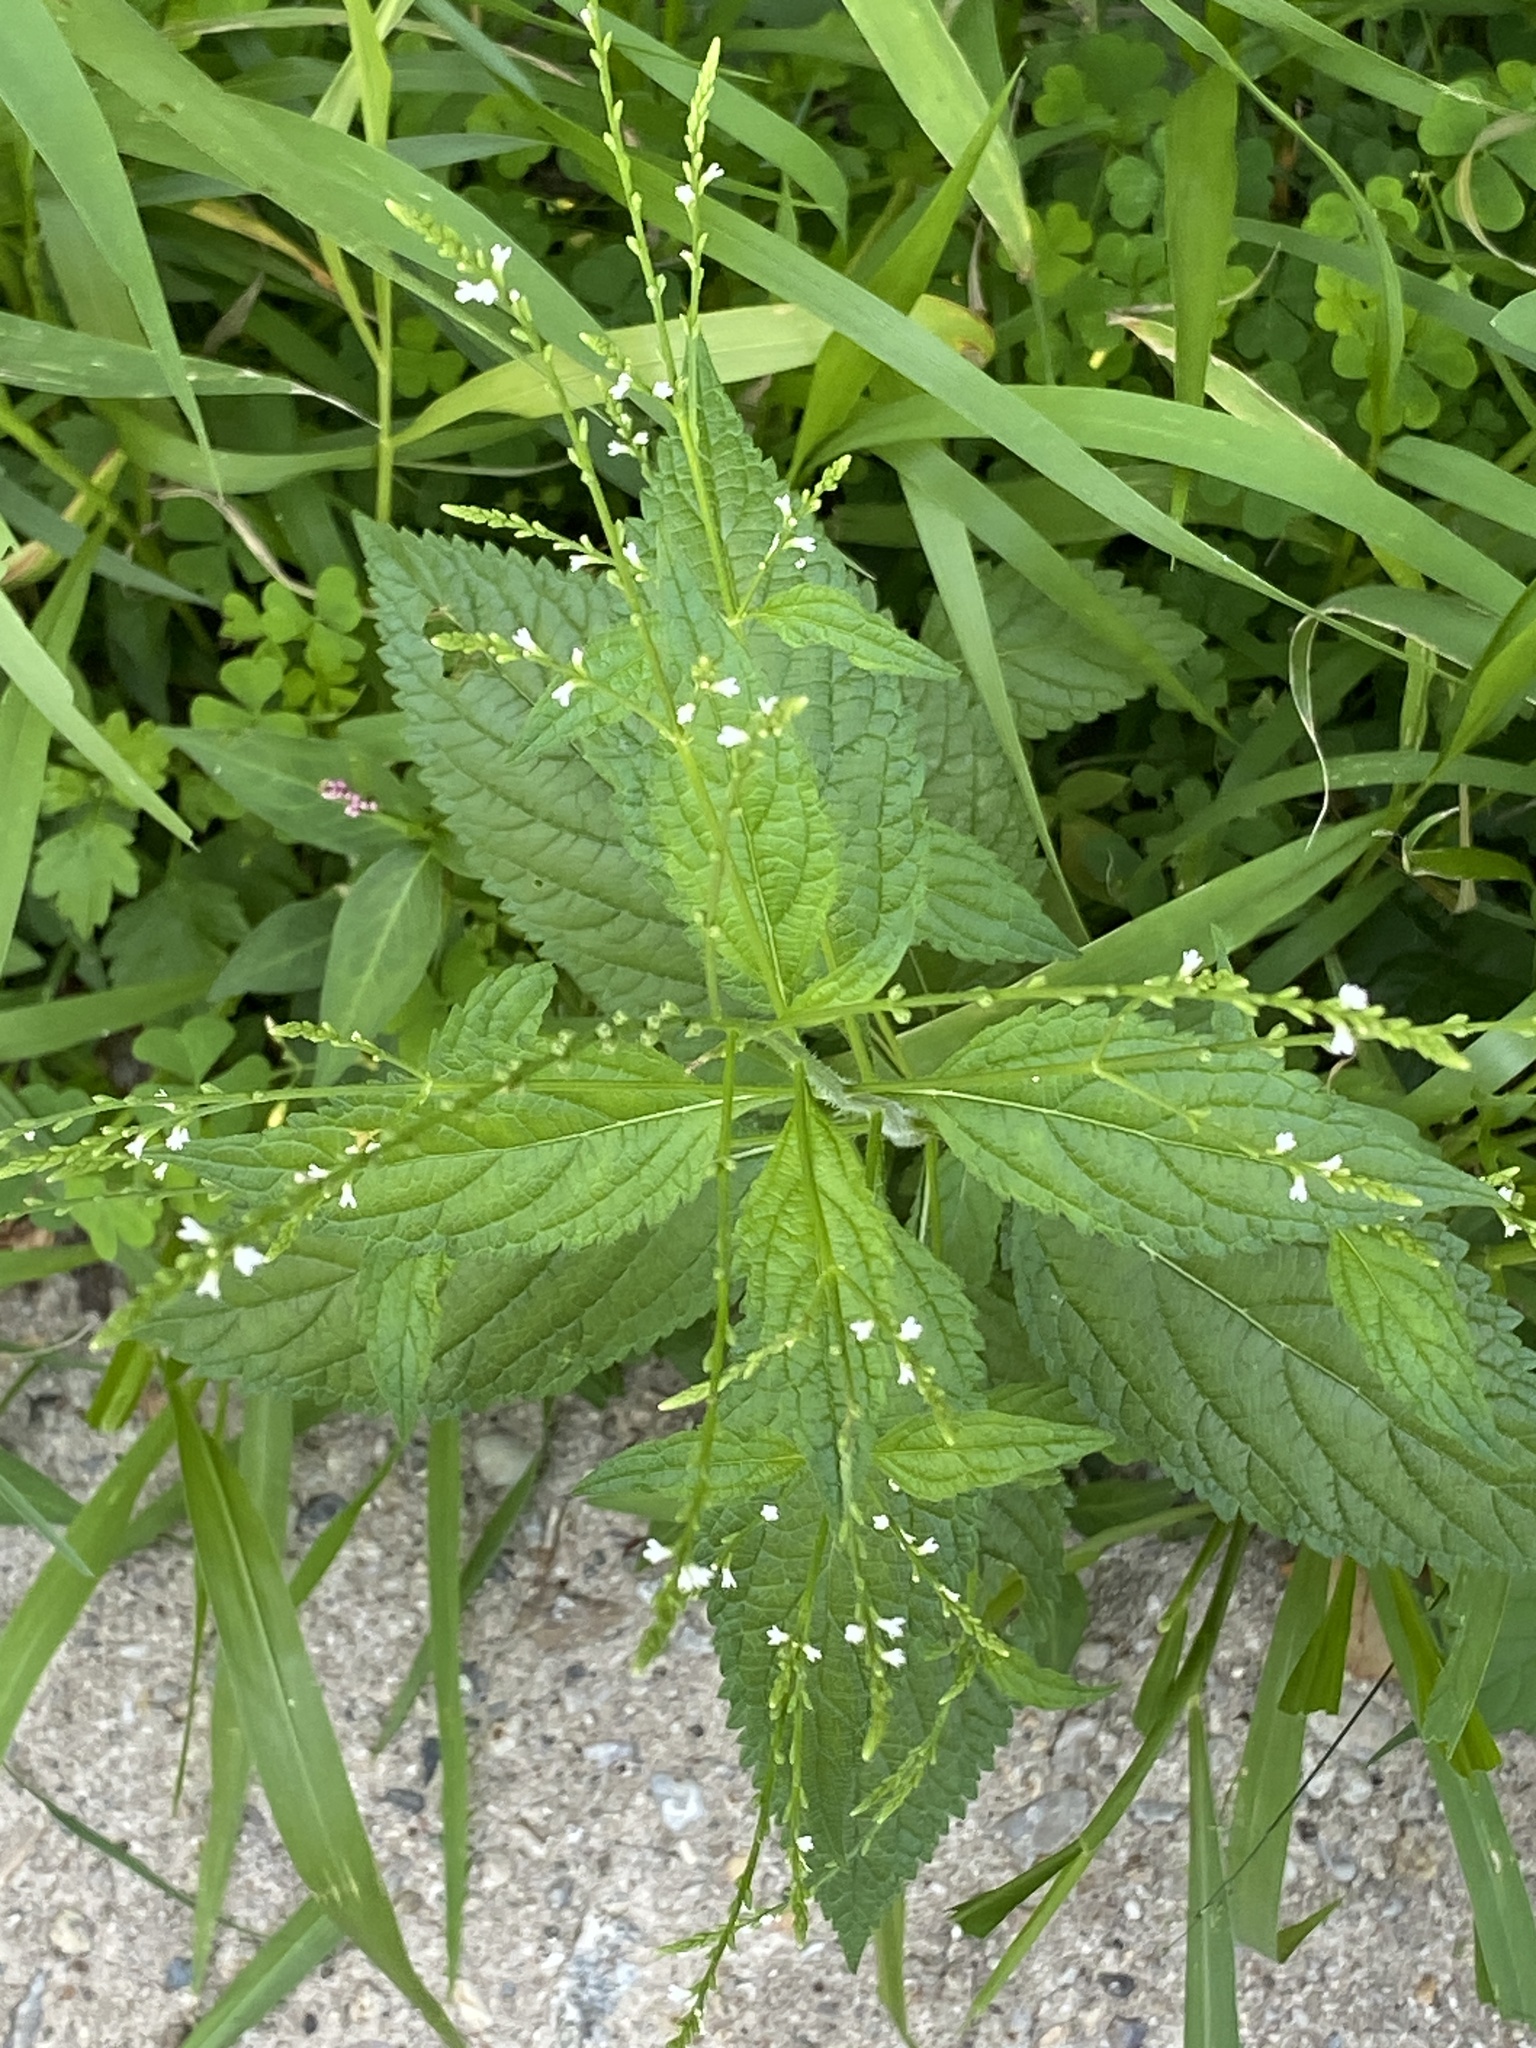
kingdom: Plantae
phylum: Tracheophyta
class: Magnoliopsida
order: Lamiales
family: Verbenaceae
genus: Verbena
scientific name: Verbena urticifolia
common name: Nettle-leaved vervain
